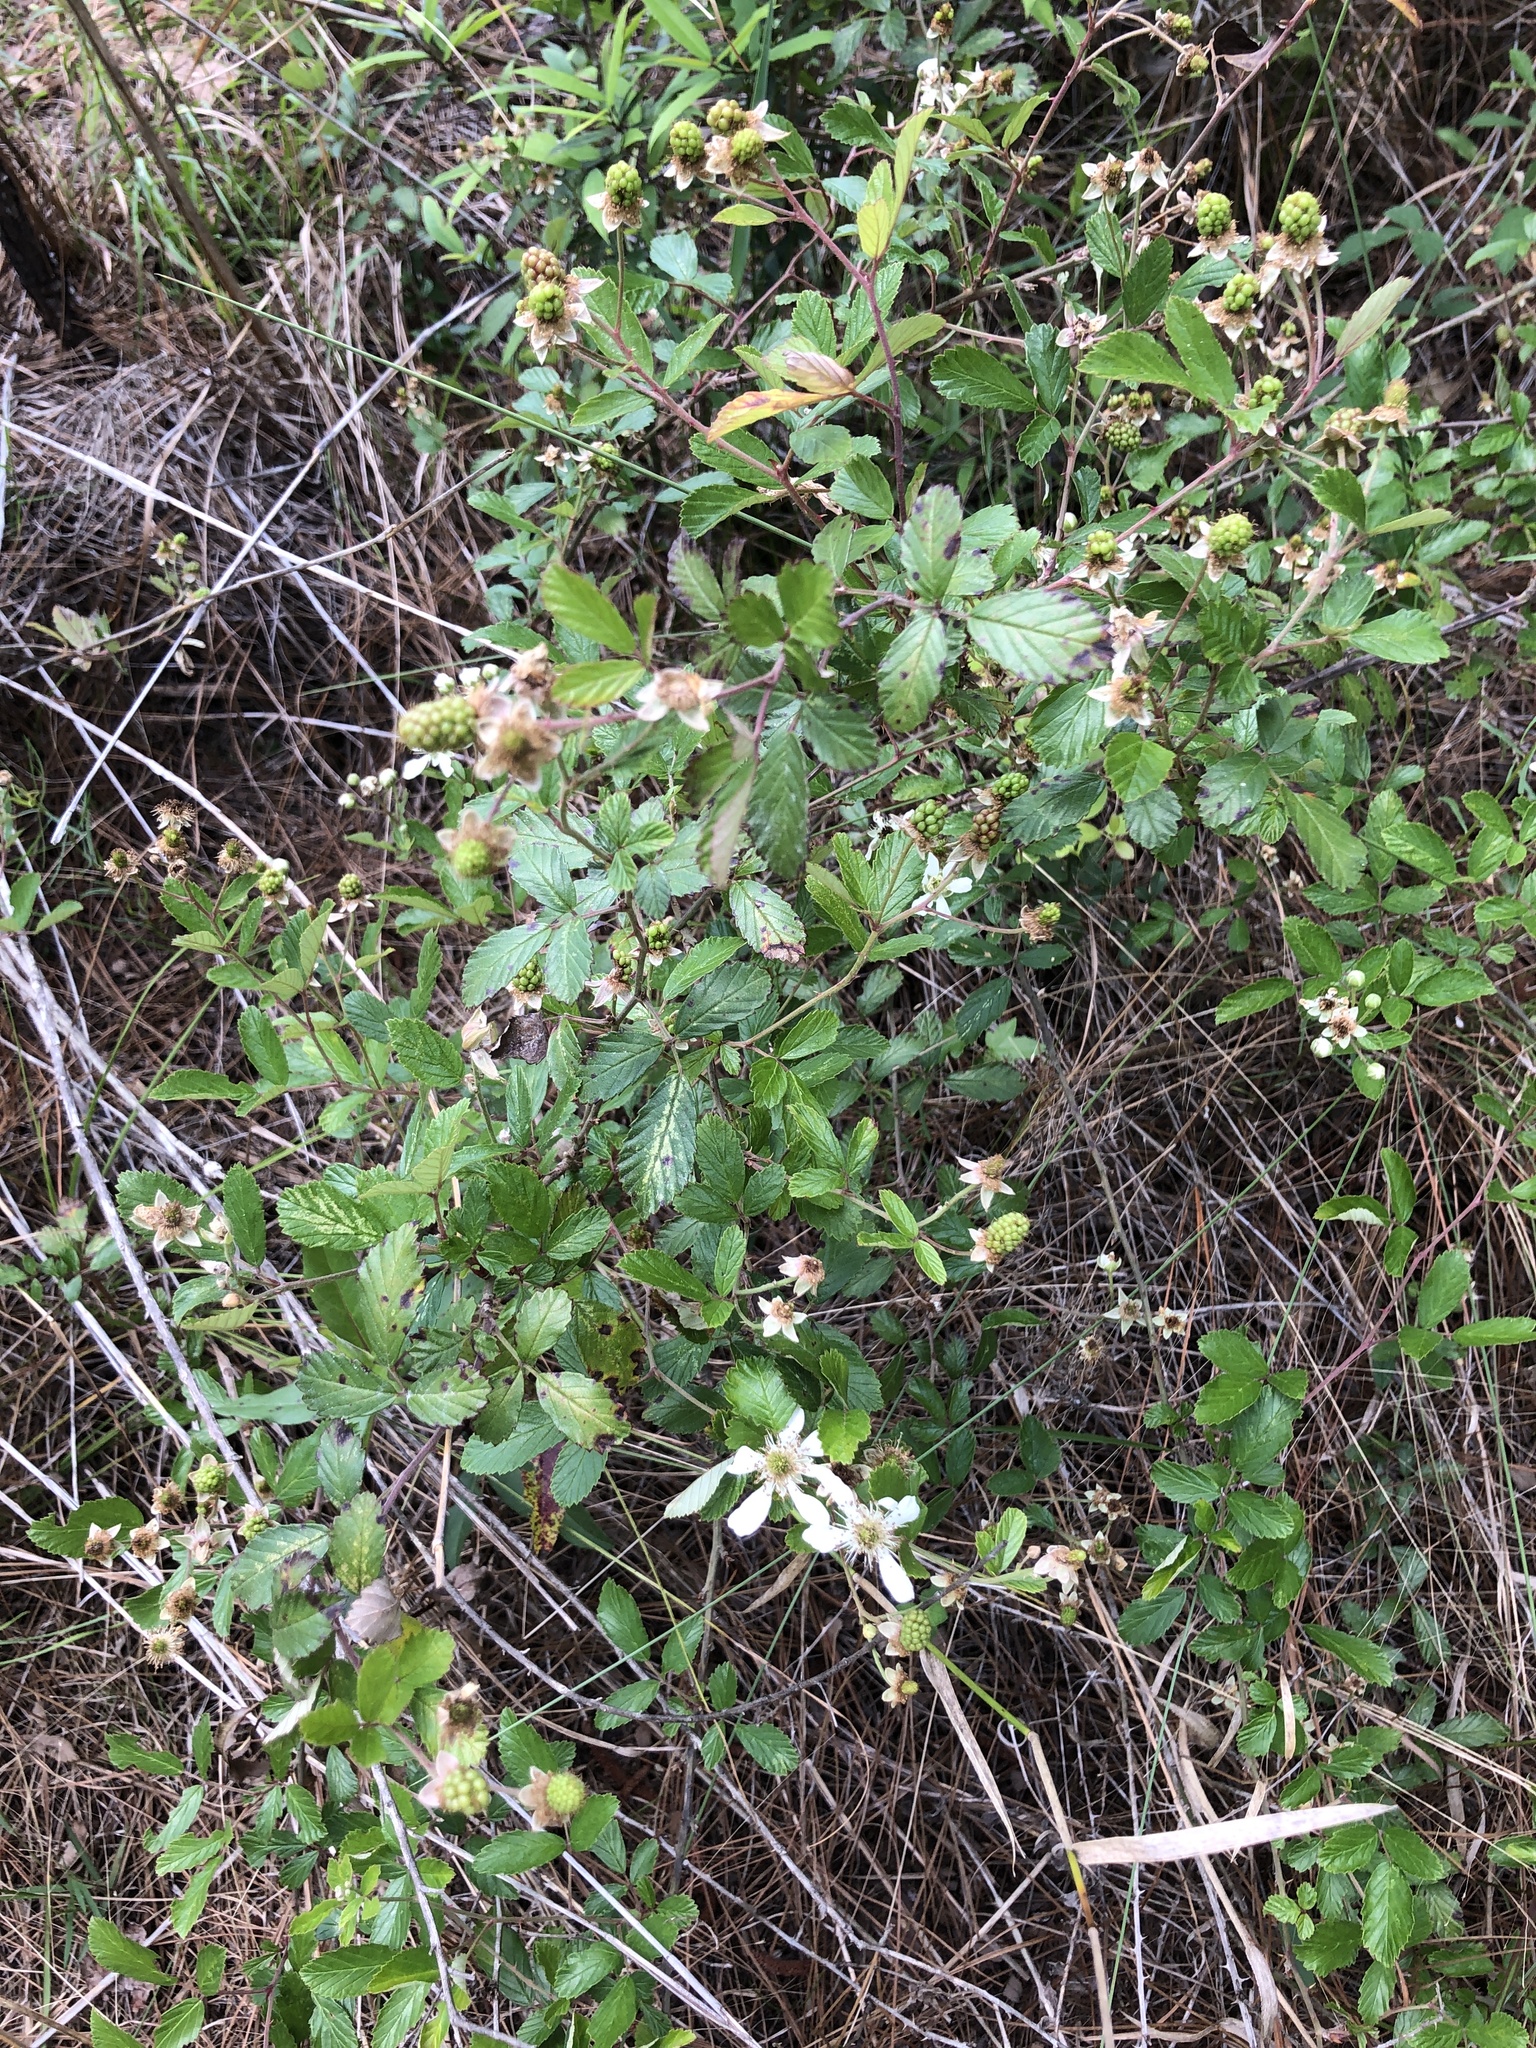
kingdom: Plantae
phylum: Tracheophyta
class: Magnoliopsida
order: Rosales
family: Rosaceae
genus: Rubus
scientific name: Rubus cuneifolius
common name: American bramble
